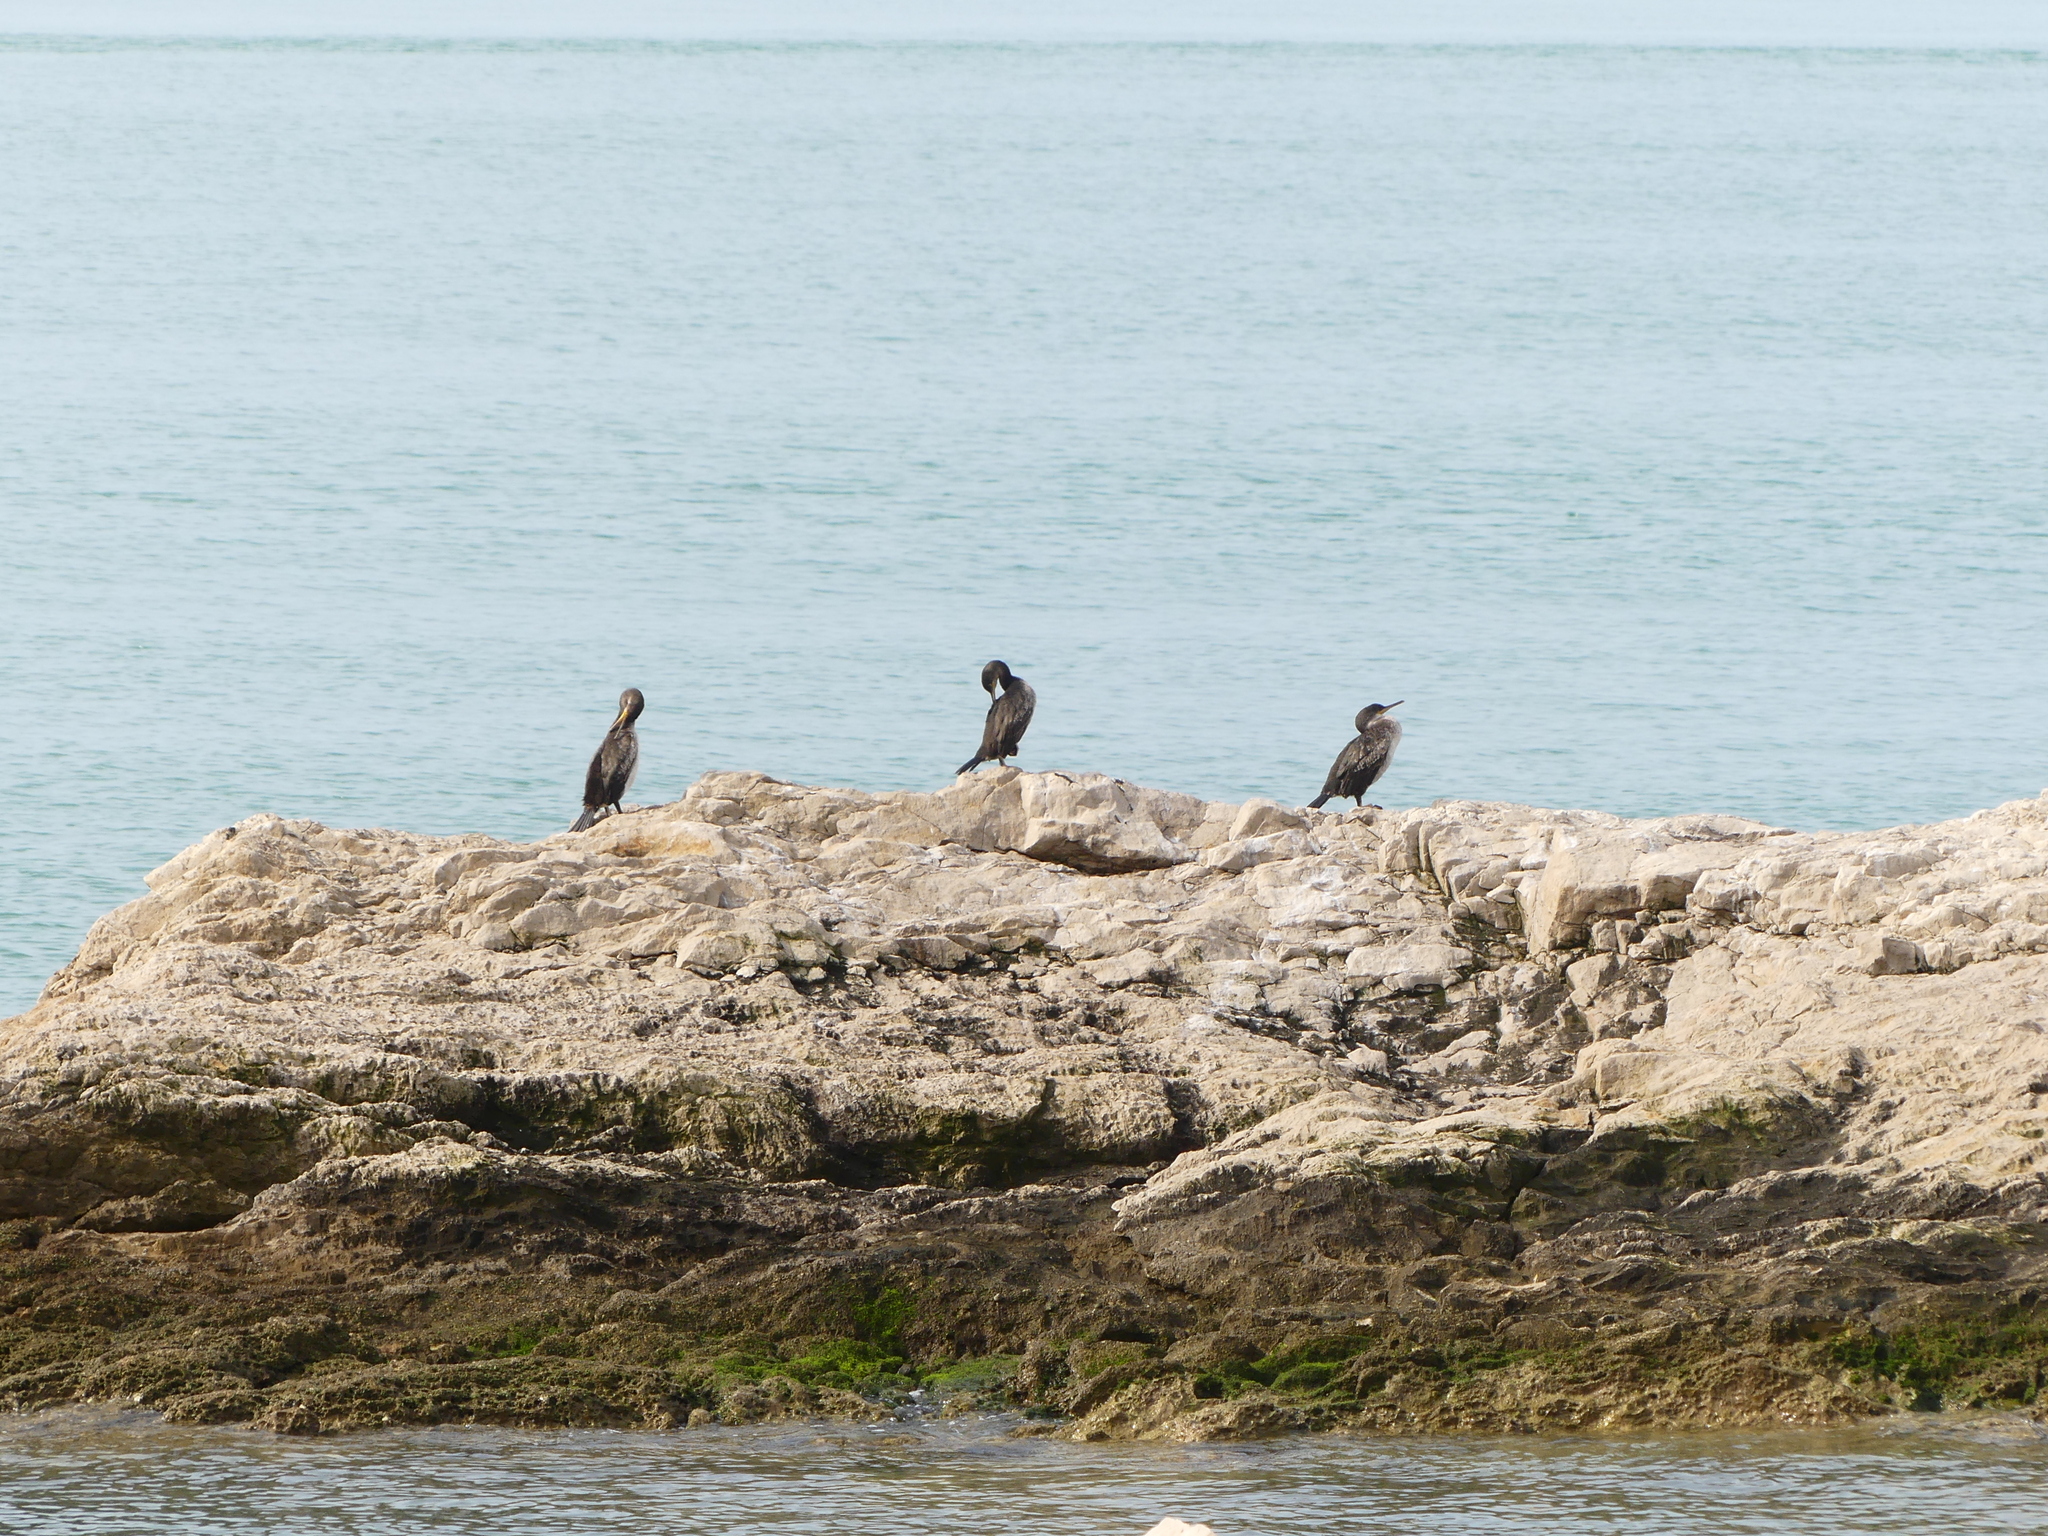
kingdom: Animalia
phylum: Chordata
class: Aves
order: Suliformes
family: Phalacrocoracidae
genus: Phalacrocorax
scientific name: Phalacrocorax aristotelis
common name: European shag
